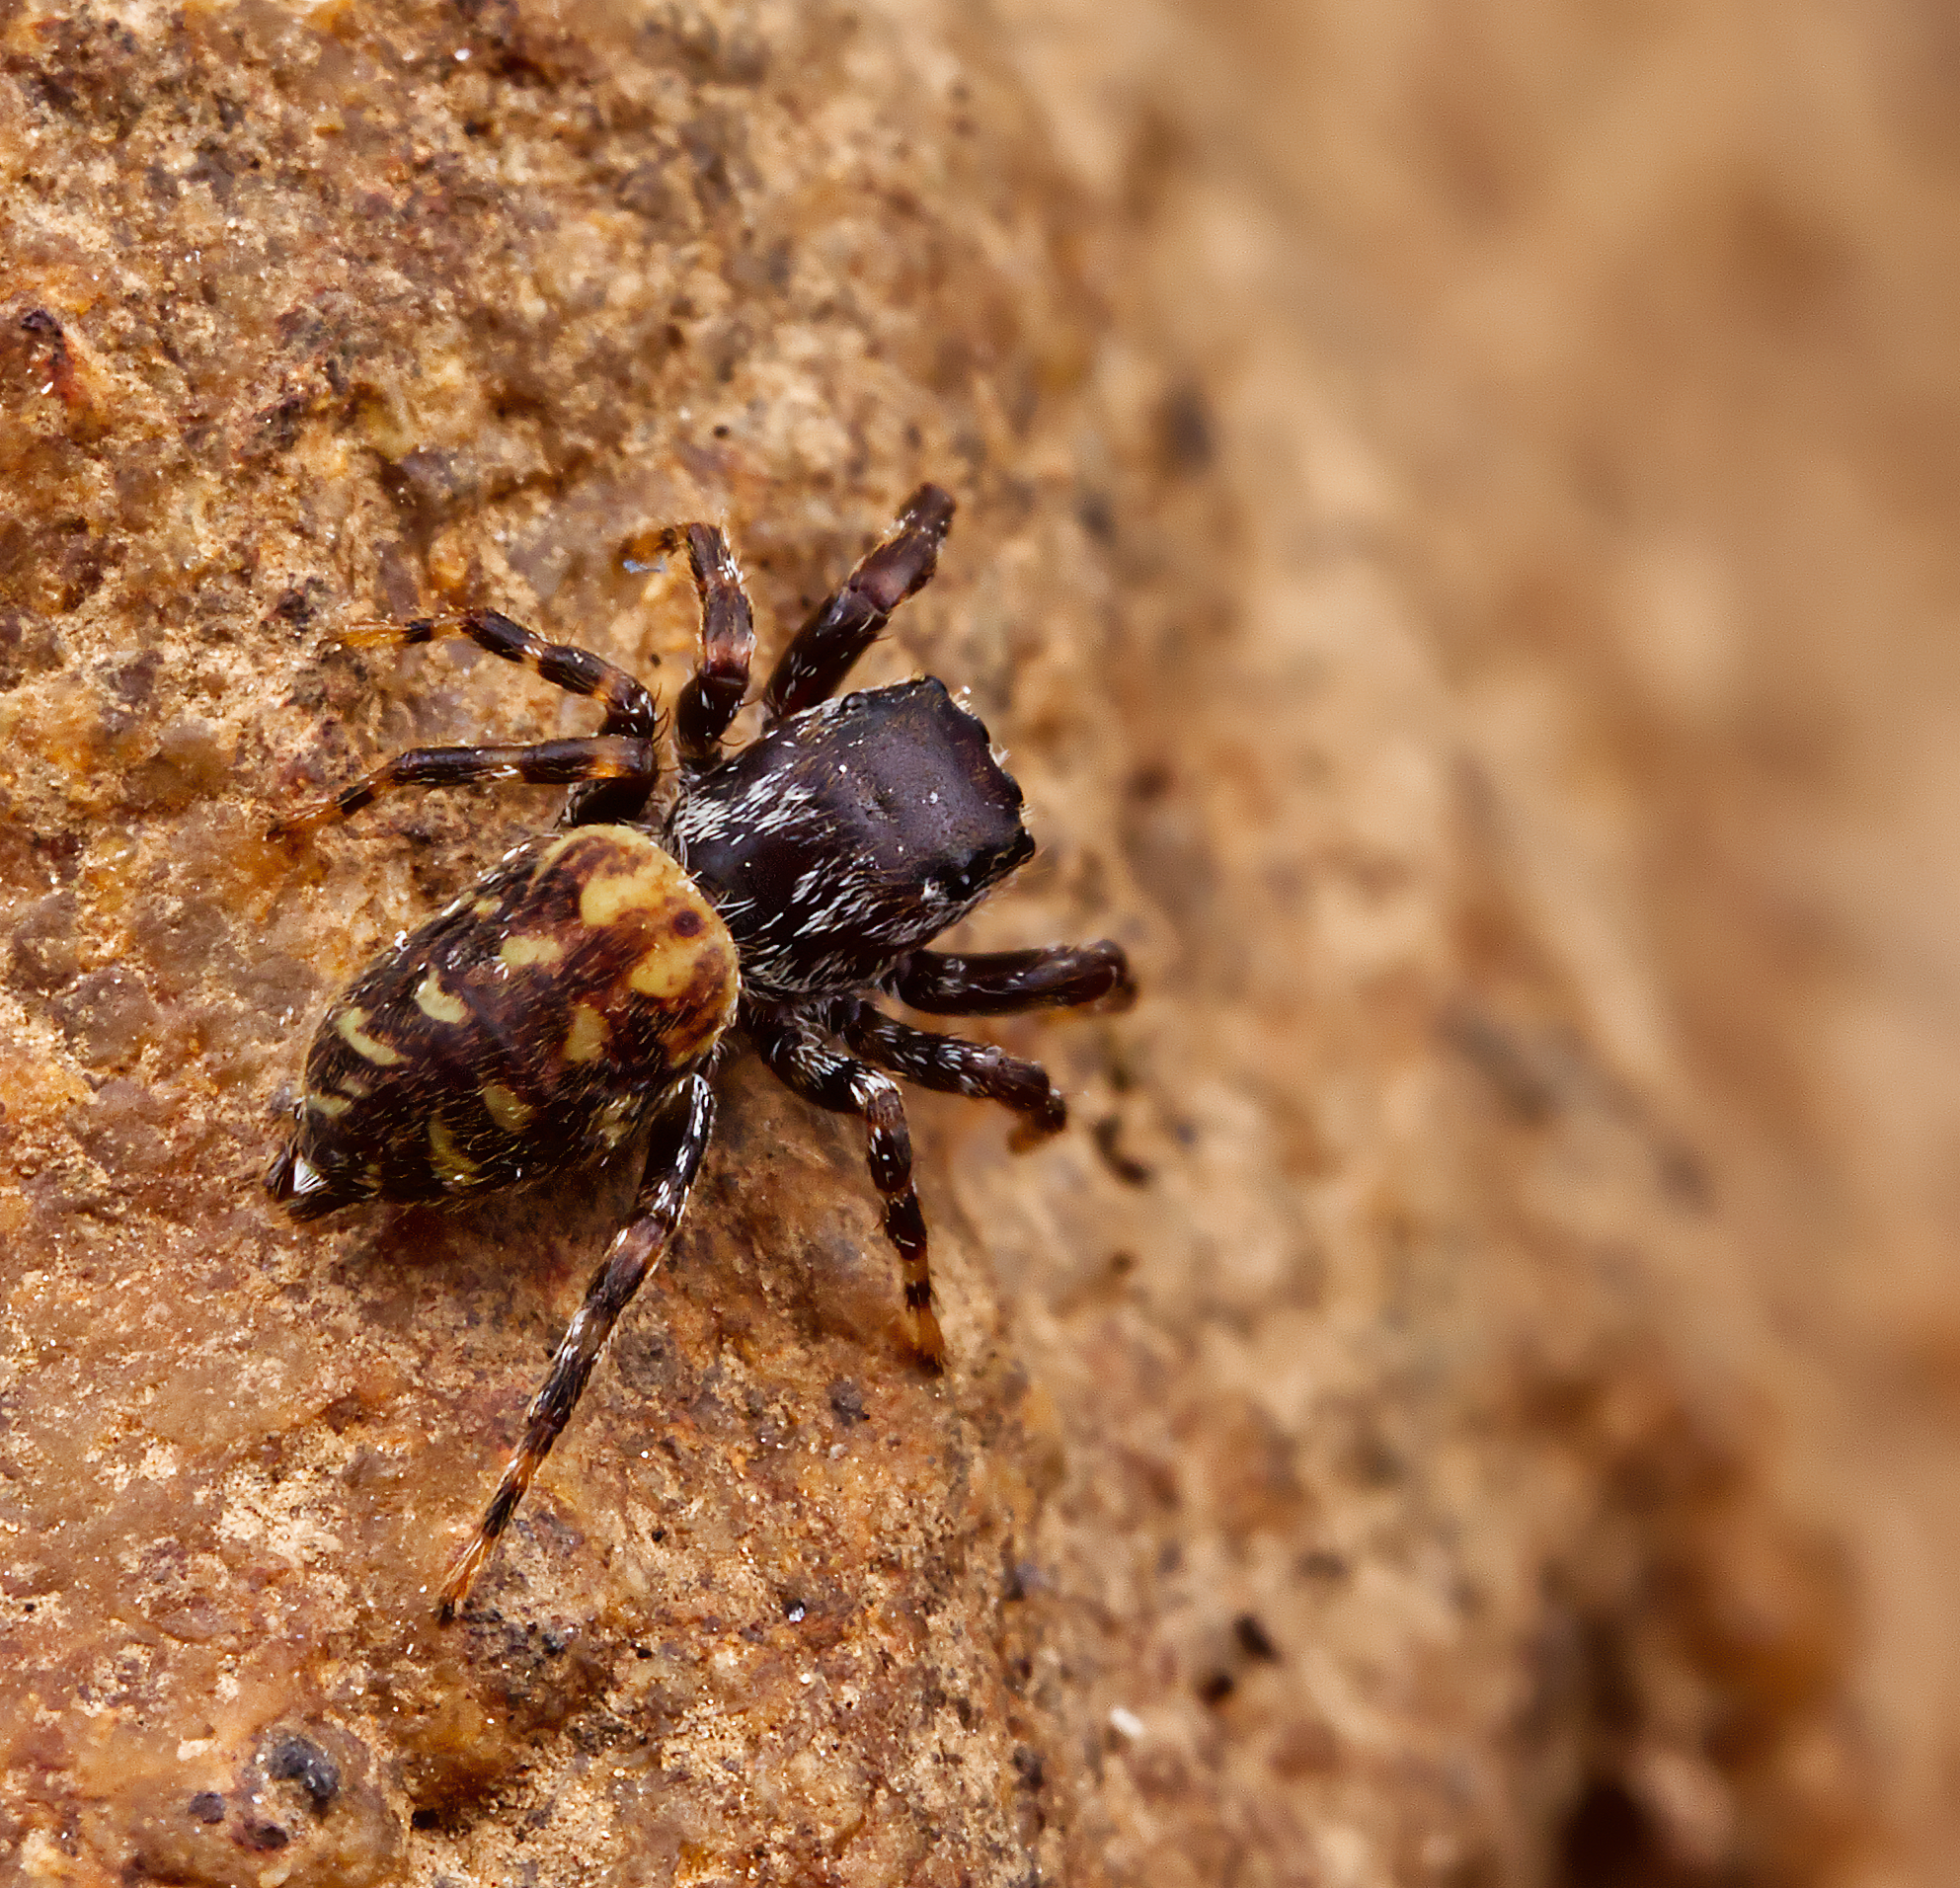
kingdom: Animalia
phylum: Arthropoda
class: Arachnida
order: Araneae
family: Salticidae
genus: Pelegrina
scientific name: Pelegrina galathea
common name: Jumping spiders
